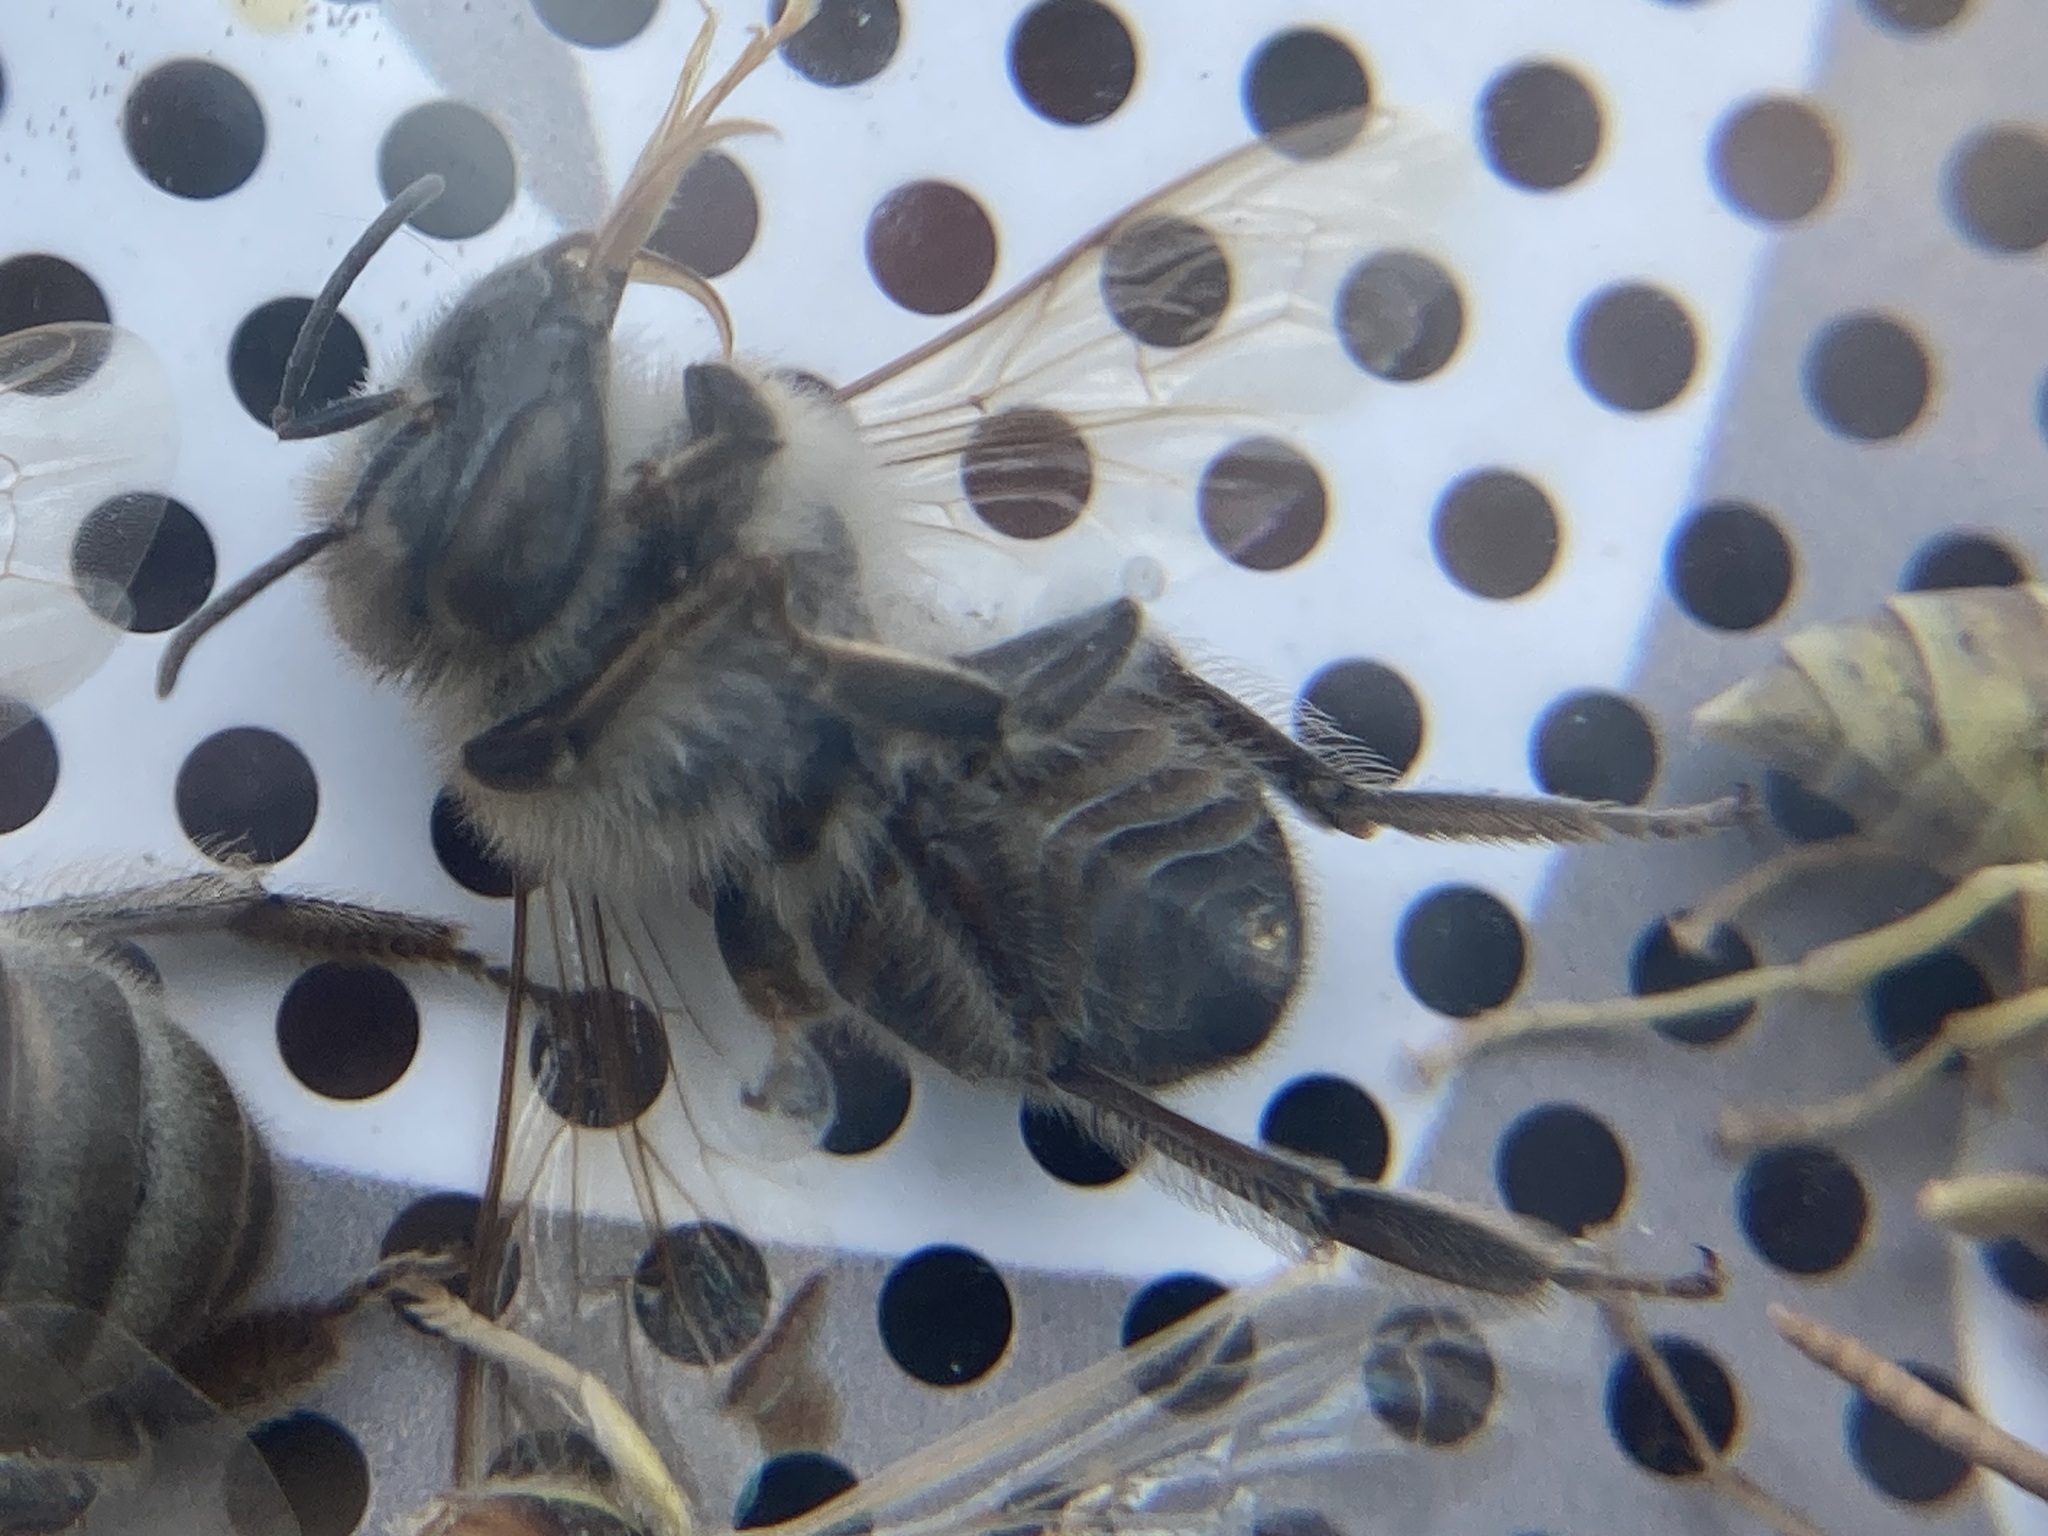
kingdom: Animalia
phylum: Arthropoda
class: Insecta
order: Hymenoptera
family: Apidae
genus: Apis
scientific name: Apis mellifera
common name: Honey bee
